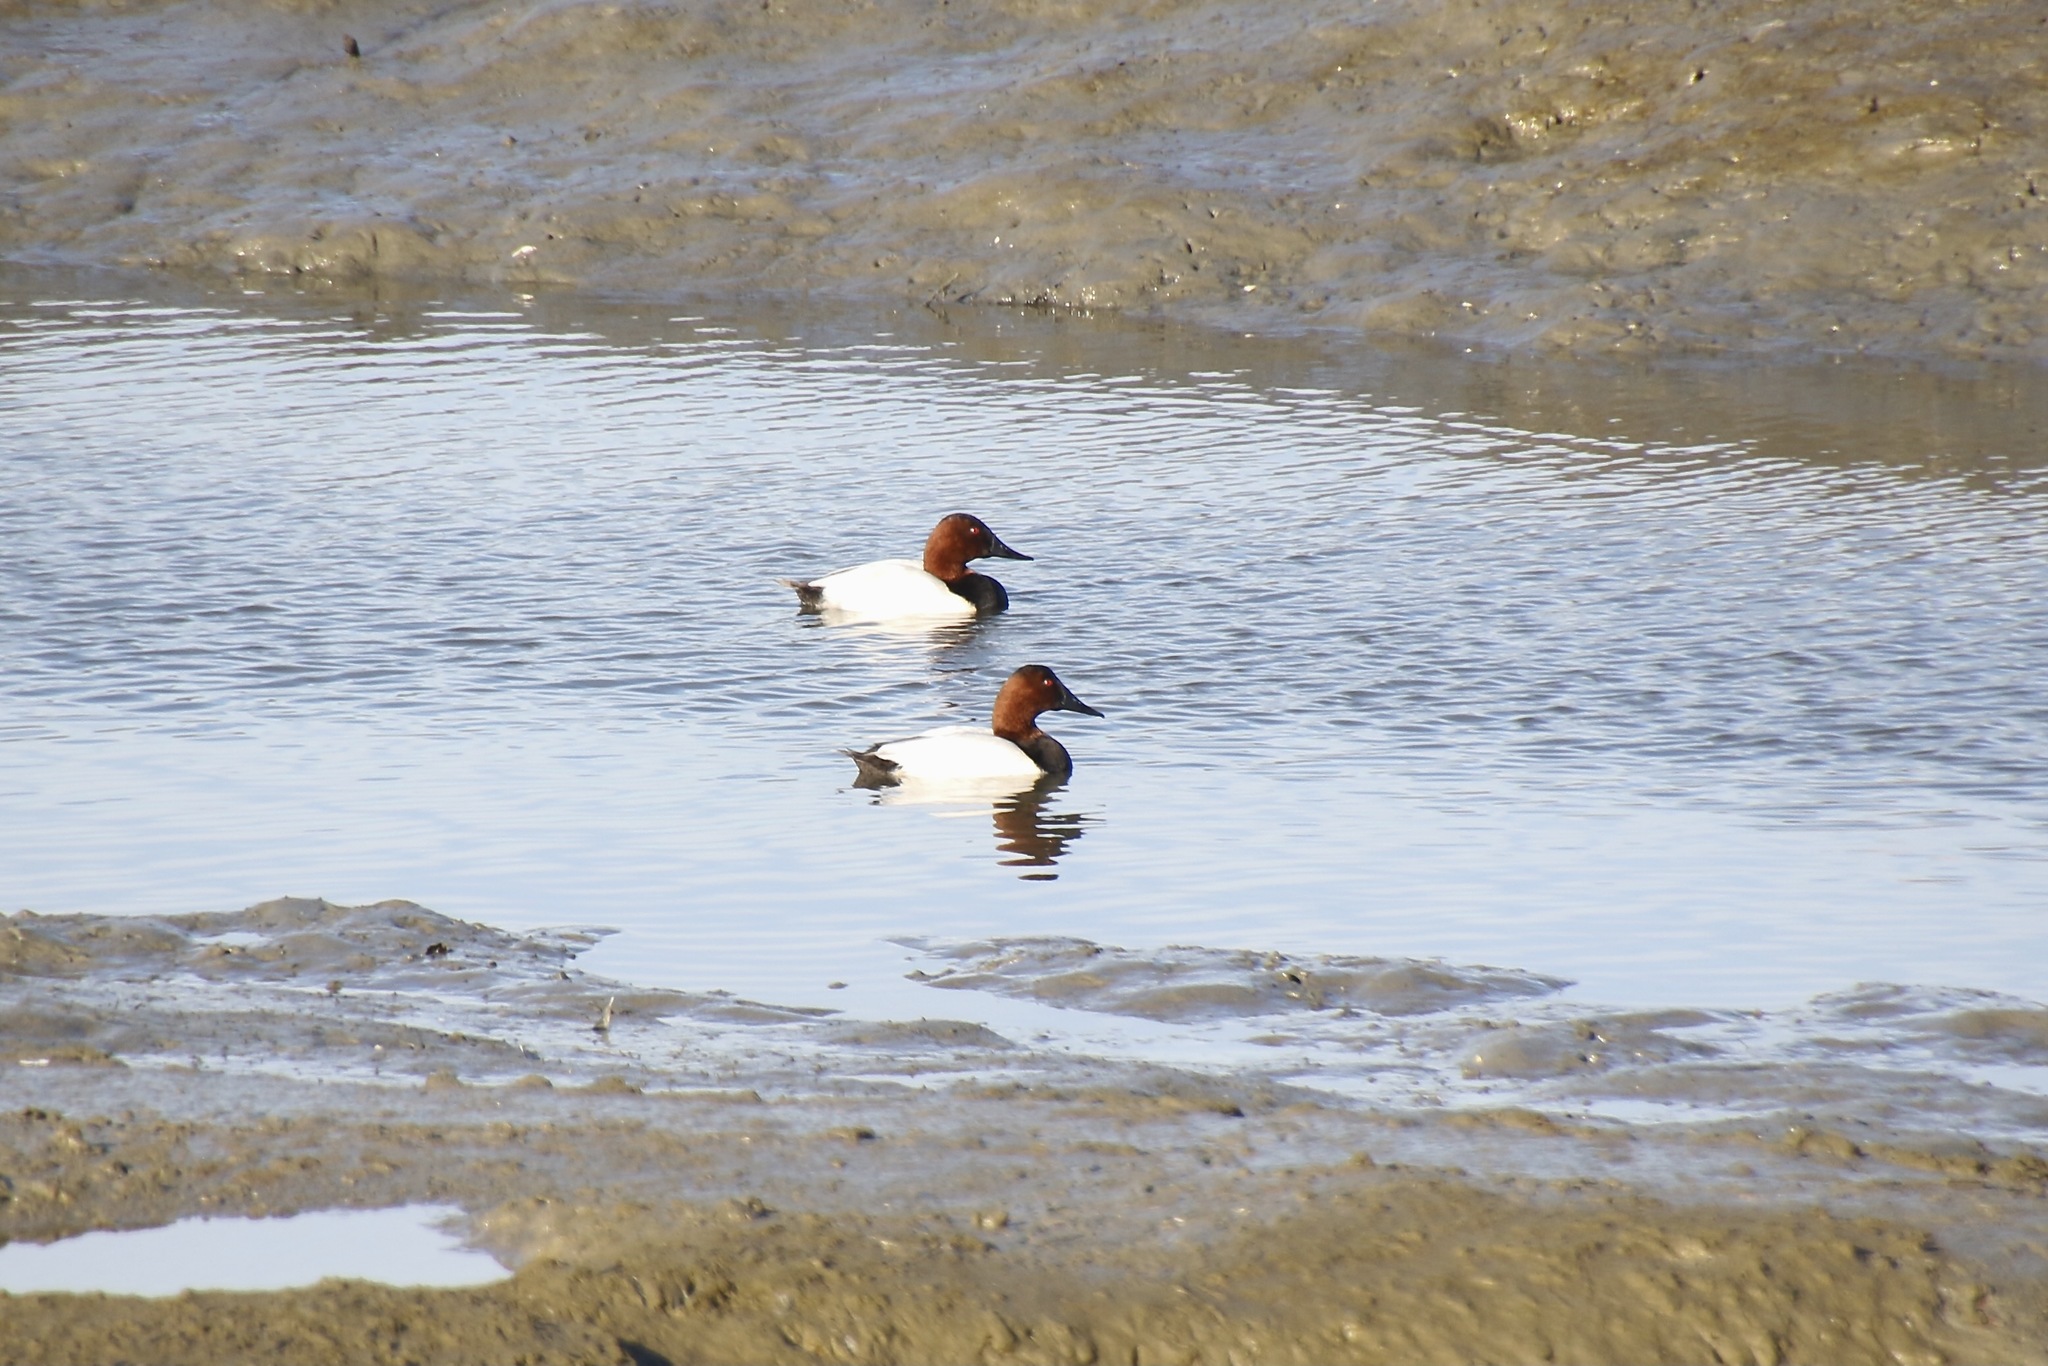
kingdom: Animalia
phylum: Chordata
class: Aves
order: Anseriformes
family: Anatidae
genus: Aythya
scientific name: Aythya valisineria
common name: Canvasback
